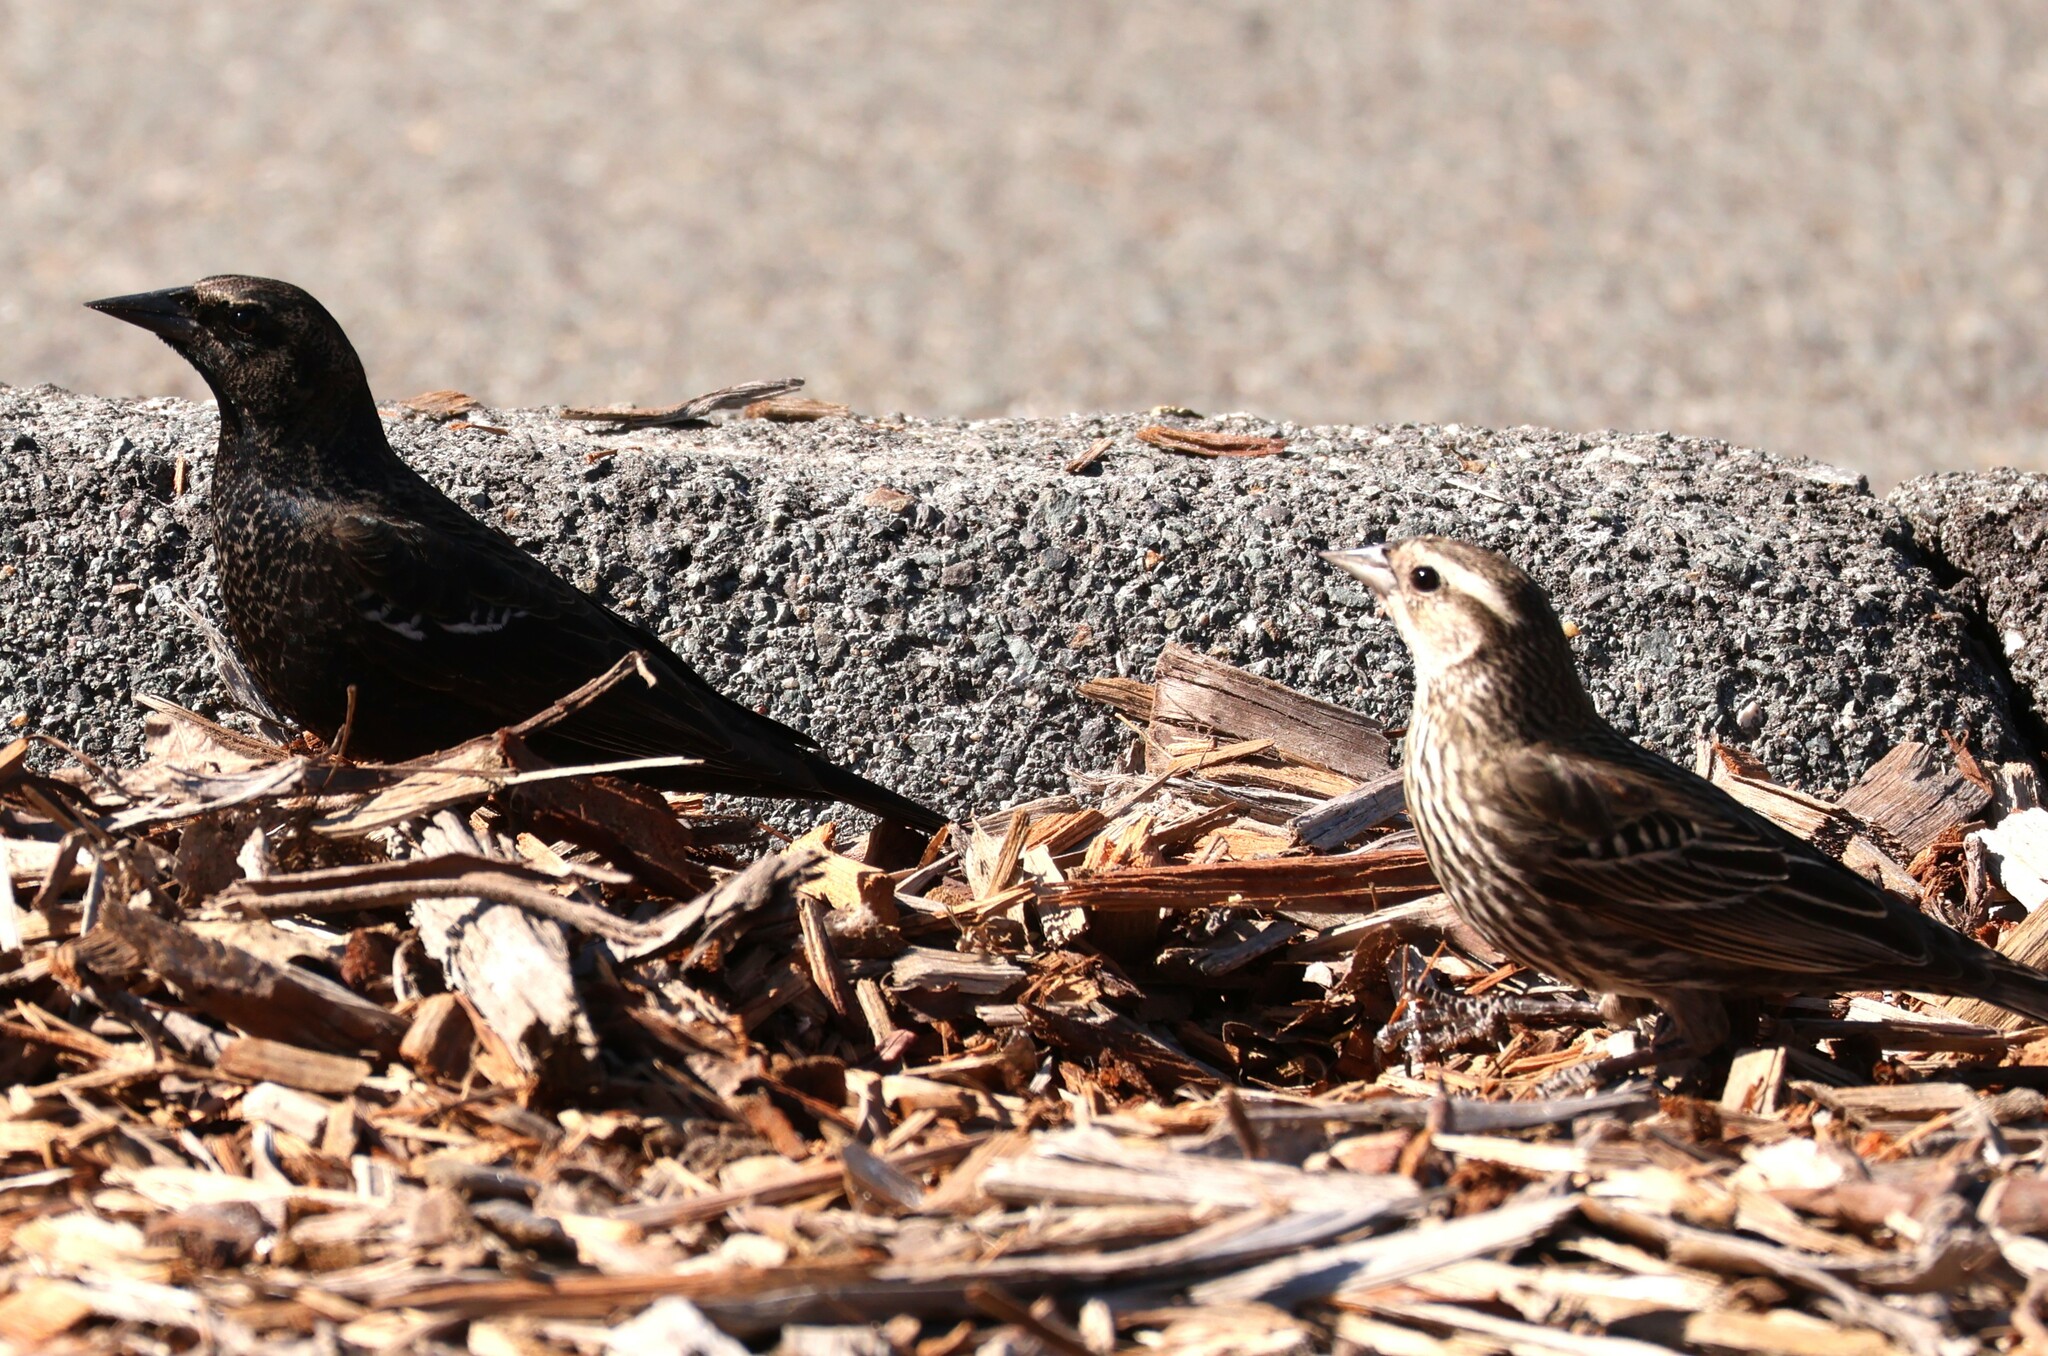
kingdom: Animalia
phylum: Chordata
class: Aves
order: Passeriformes
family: Icteridae
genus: Agelaius
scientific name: Agelaius phoeniceus
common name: Red-winged blackbird
